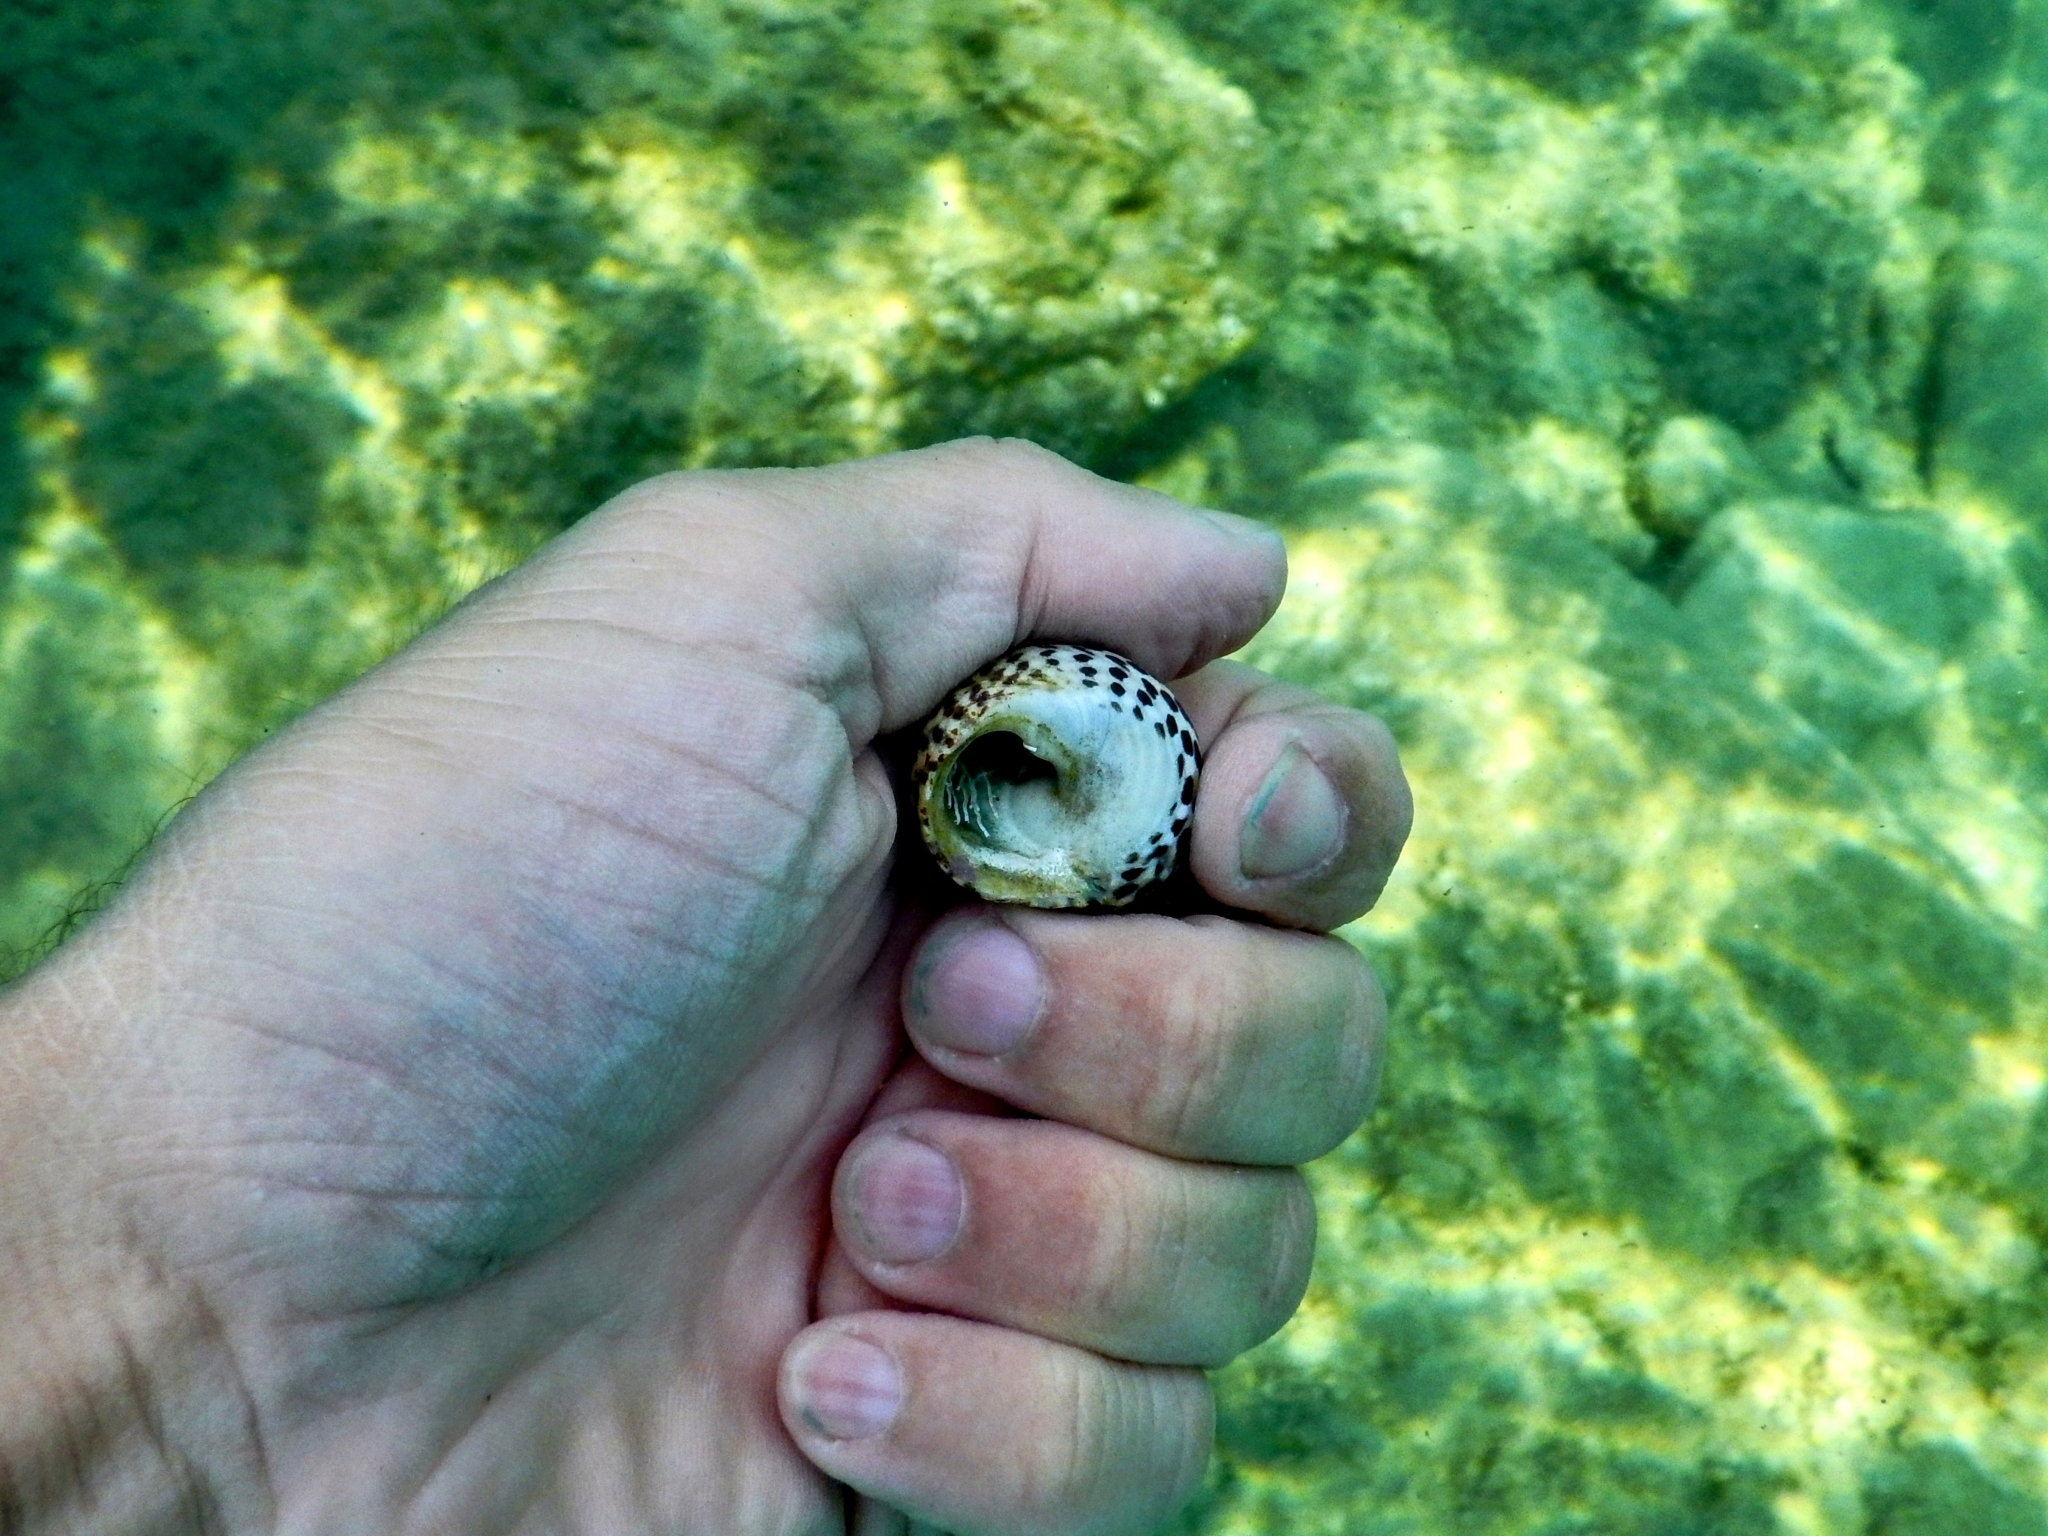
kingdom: Animalia
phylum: Mollusca
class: Gastropoda
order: Trochida
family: Trochidae
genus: Phorcus
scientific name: Phorcus turbinatus
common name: Turbinate monodont
